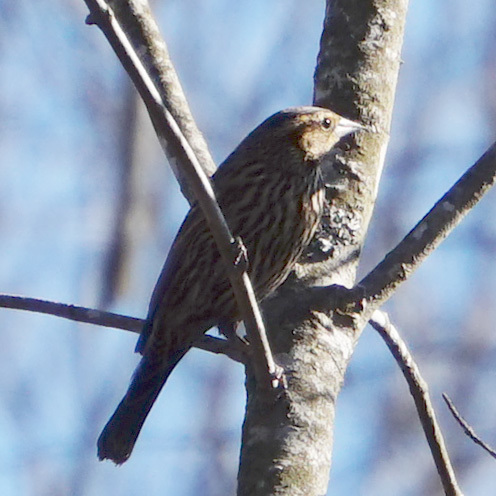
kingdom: Animalia
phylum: Chordata
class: Aves
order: Passeriformes
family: Icteridae
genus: Agelaius
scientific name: Agelaius phoeniceus
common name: Red-winged blackbird
